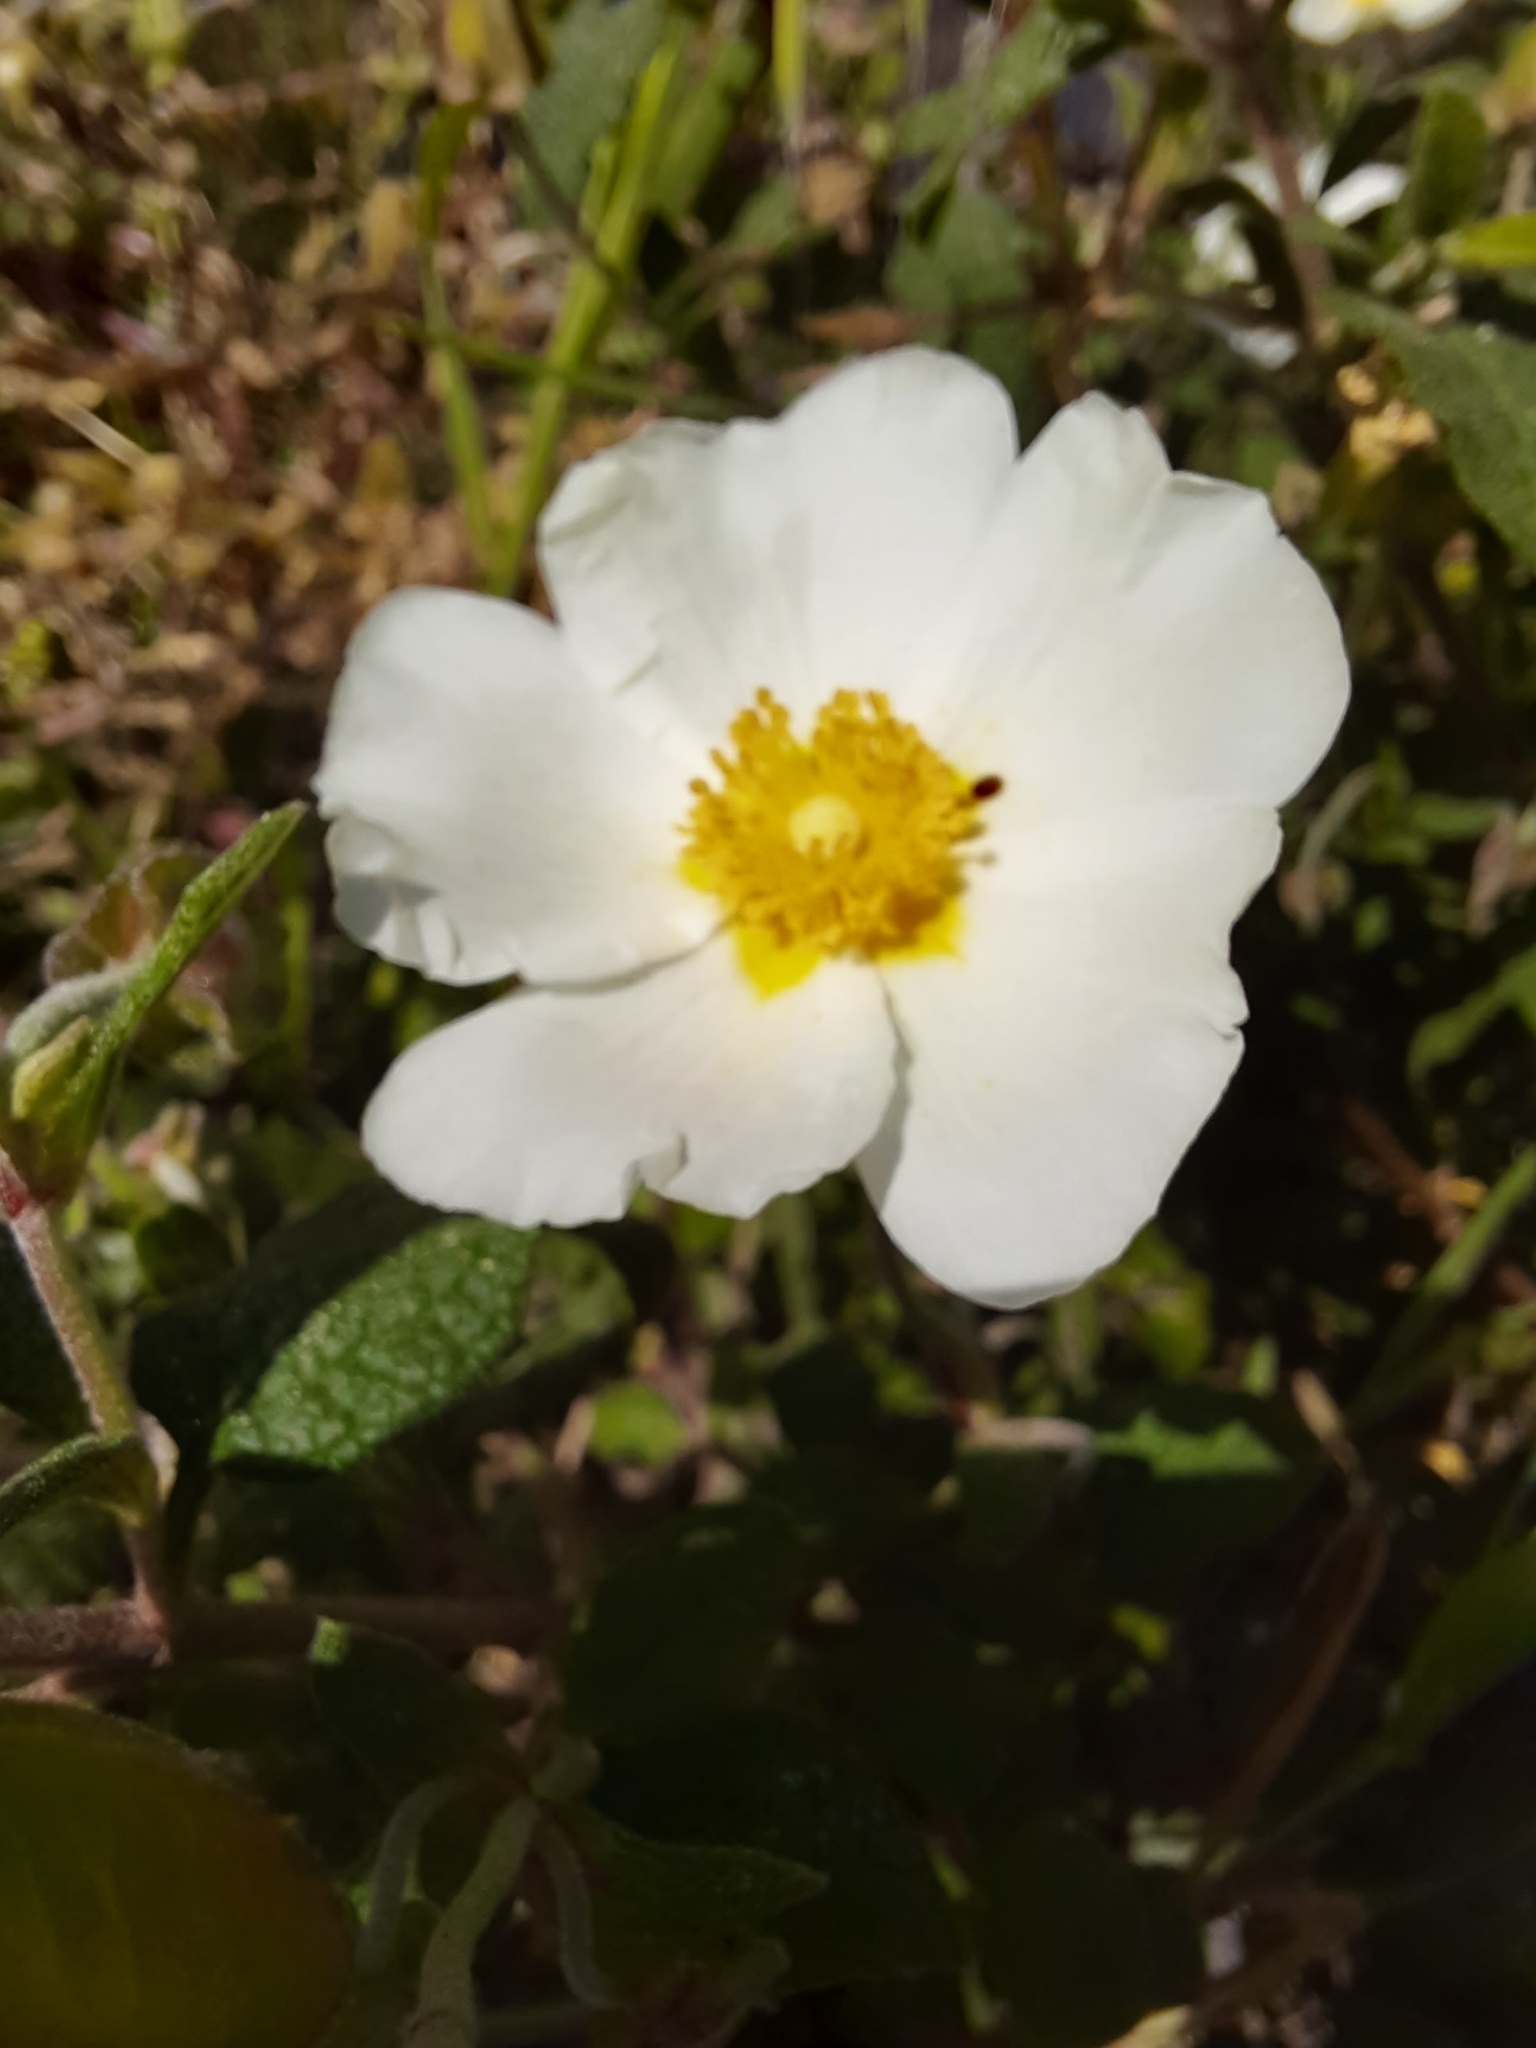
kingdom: Plantae
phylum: Tracheophyta
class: Magnoliopsida
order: Malvales
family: Cistaceae
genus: Cistus
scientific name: Cistus salviifolius
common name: Salvia cistus
